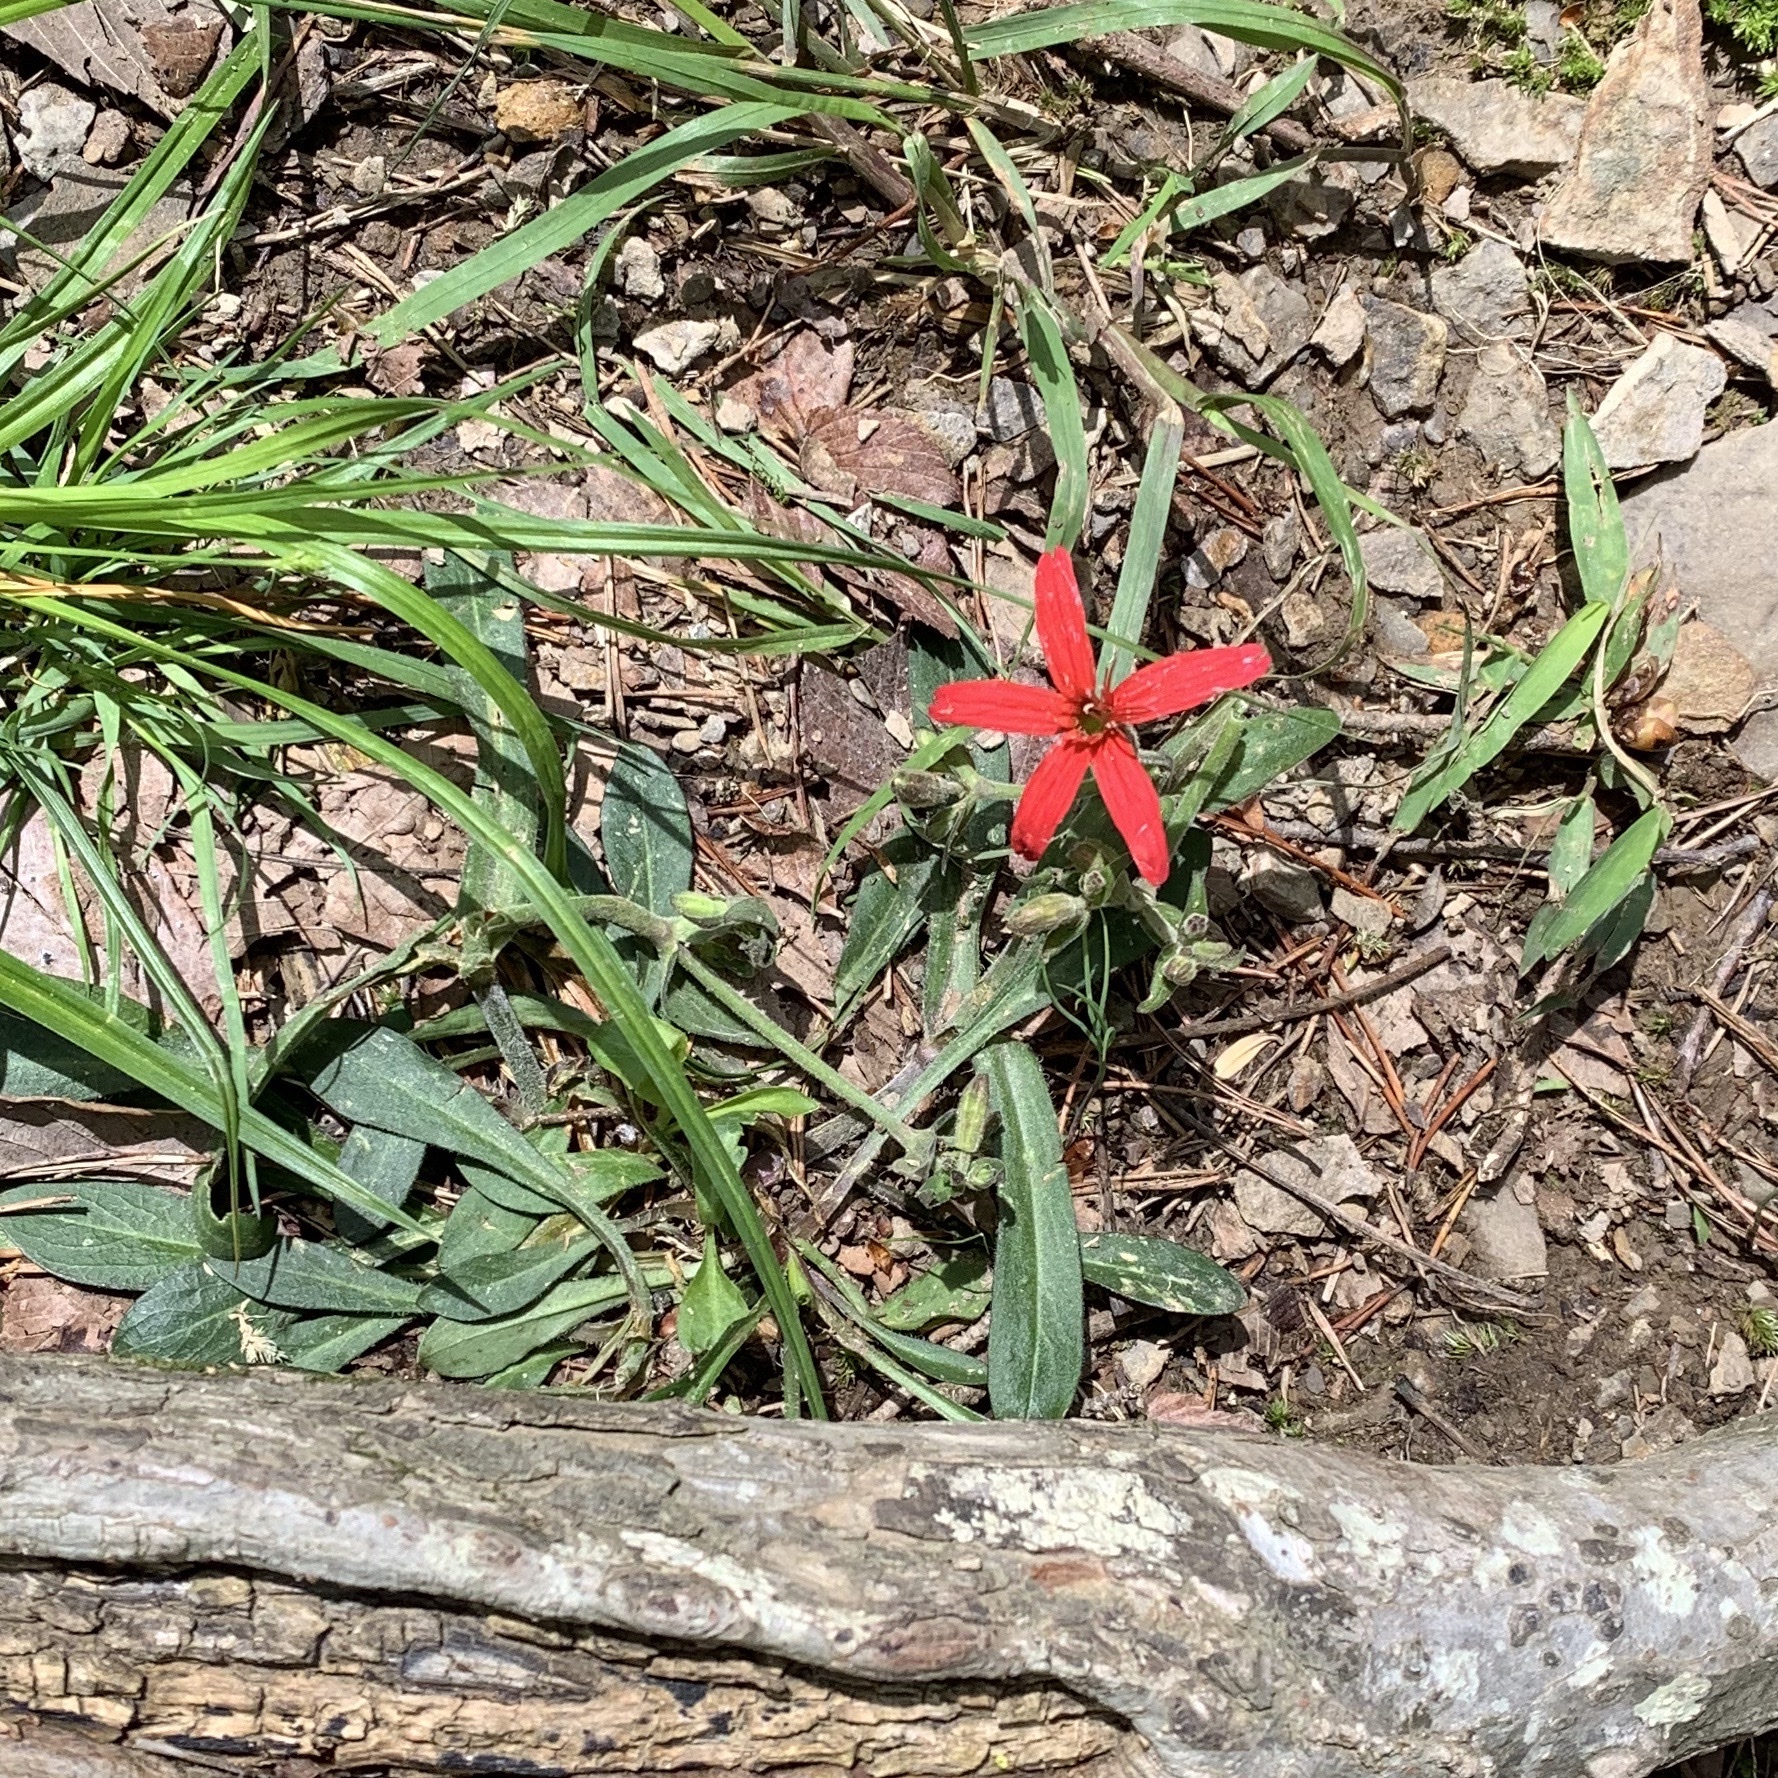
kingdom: Plantae
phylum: Tracheophyta
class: Magnoliopsida
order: Caryophyllales
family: Caryophyllaceae
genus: Silene
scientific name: Silene virginica
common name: Fire-pink
